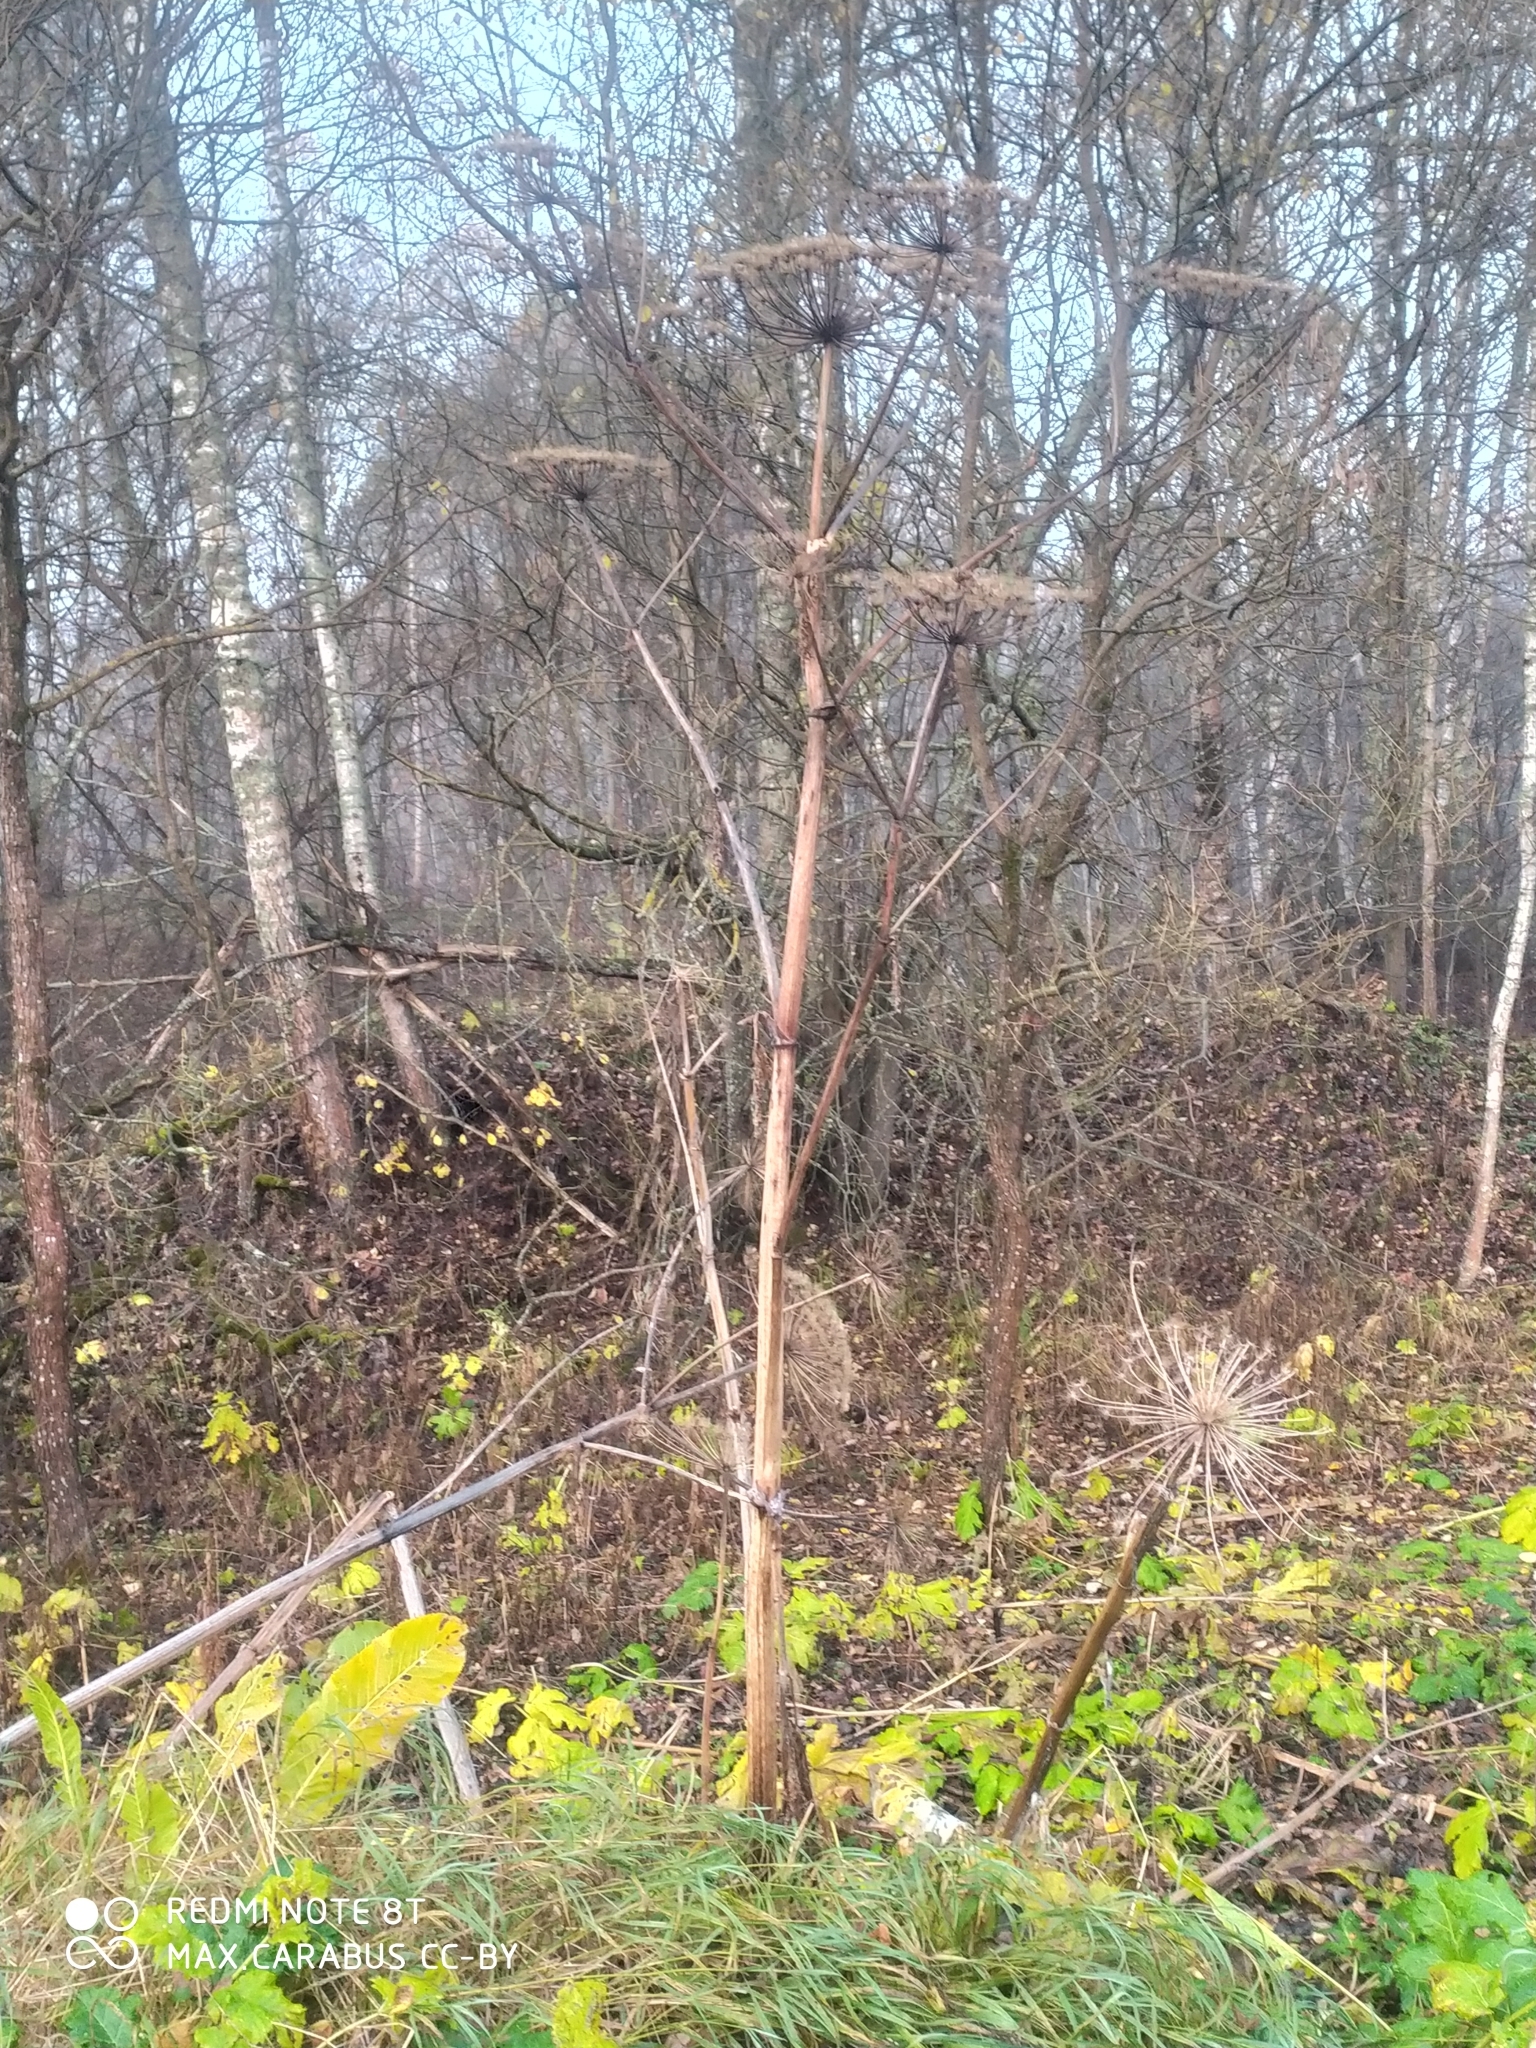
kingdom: Plantae
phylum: Tracheophyta
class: Magnoliopsida
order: Apiales
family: Apiaceae
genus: Heracleum
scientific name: Heracleum sosnowskyi
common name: Sosnowsky's hogweed
